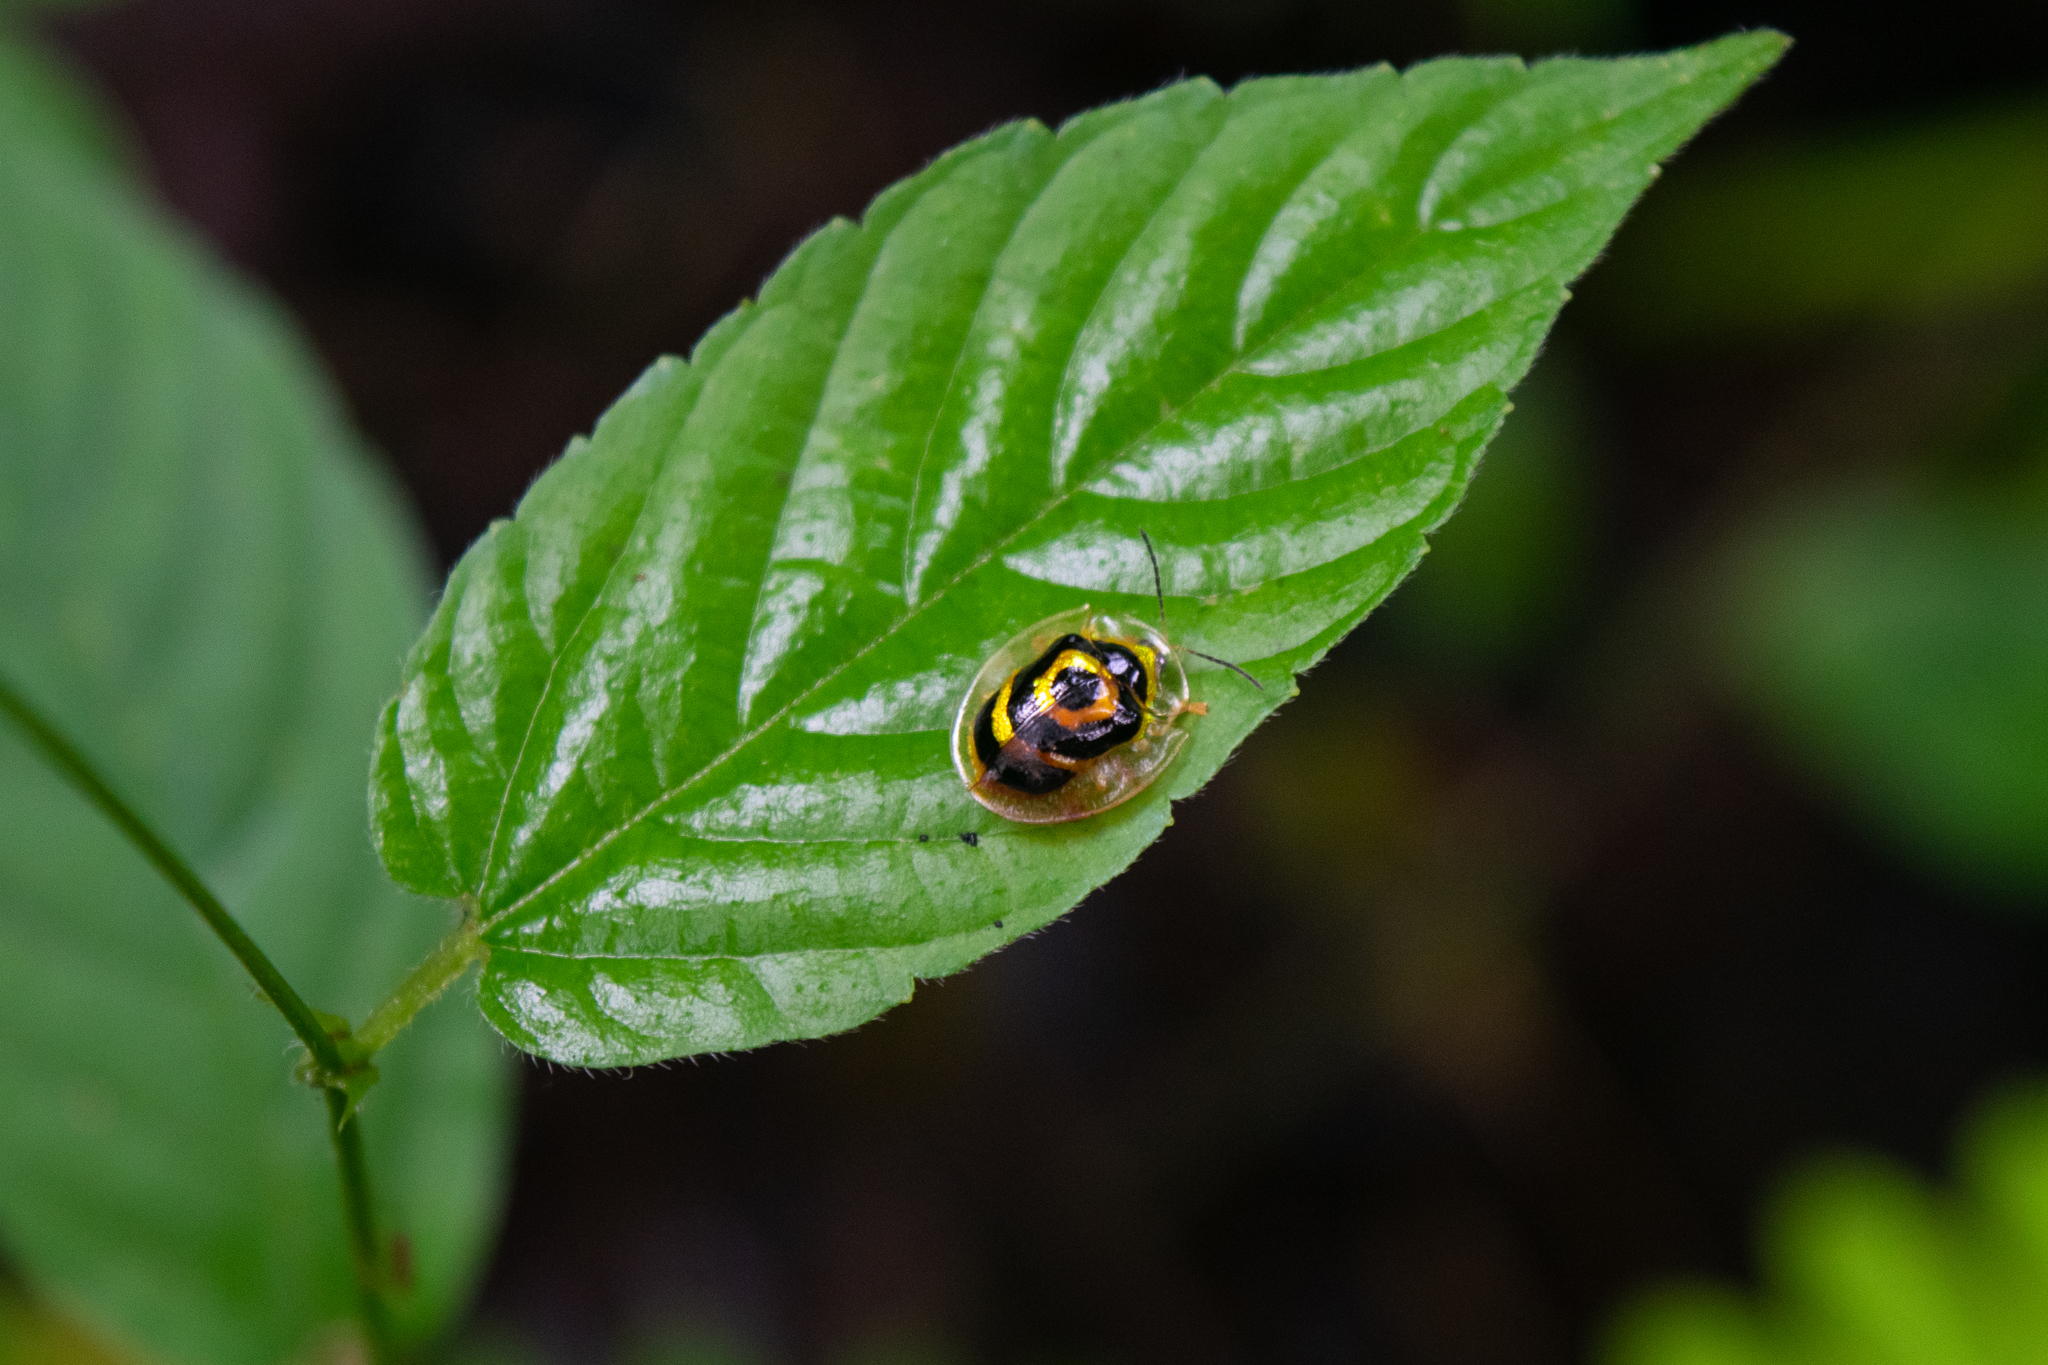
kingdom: Animalia
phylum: Arthropoda
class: Insecta
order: Coleoptera
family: Chrysomelidae
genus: Ischnocodia
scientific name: Ischnocodia annulus
